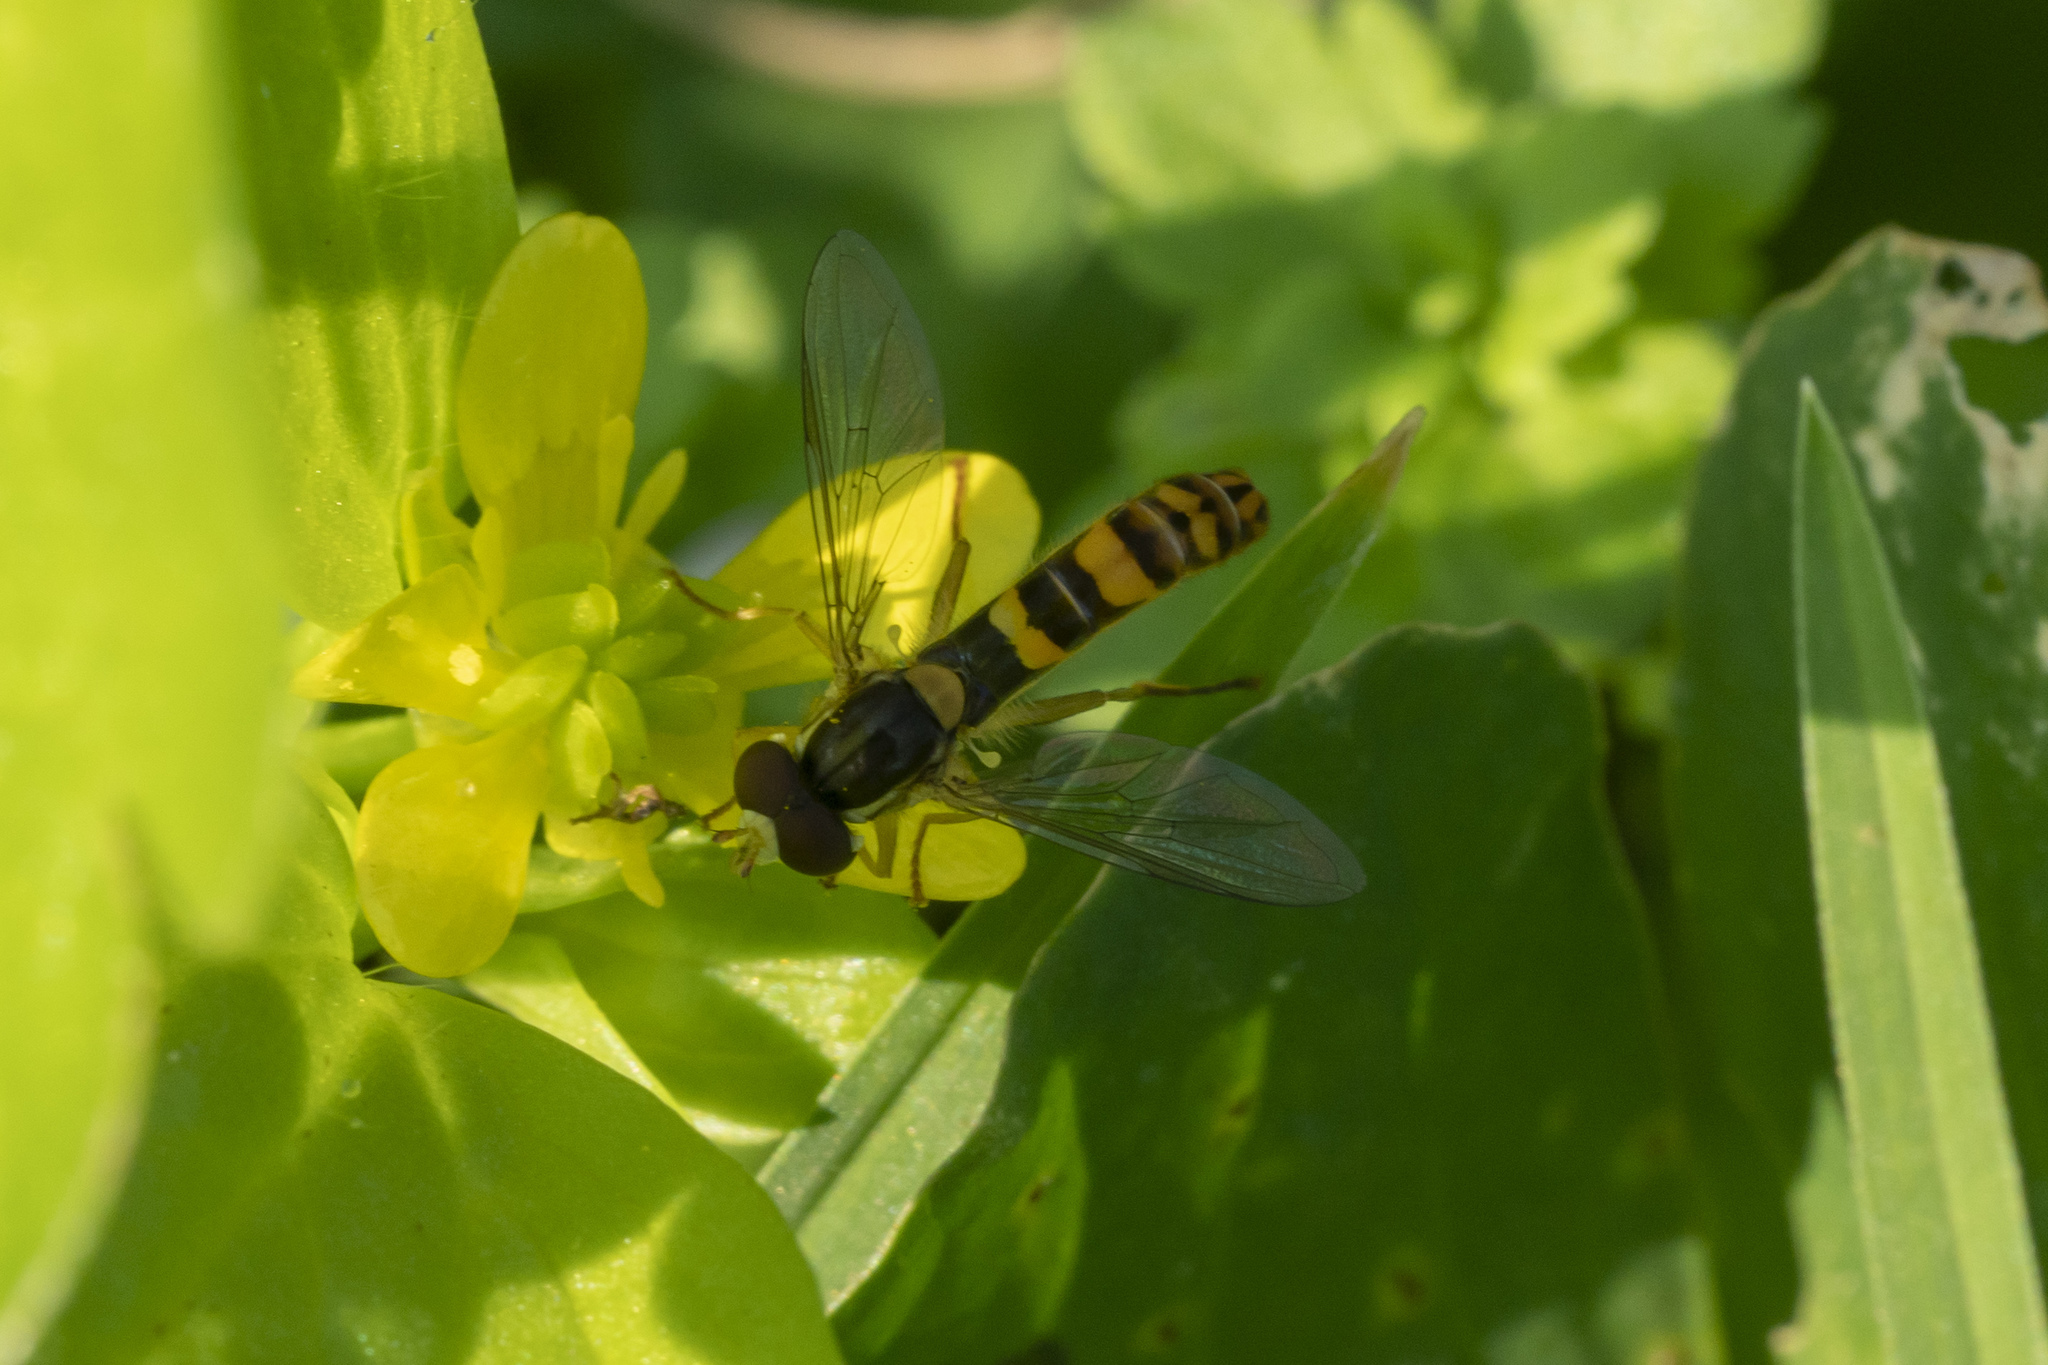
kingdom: Animalia
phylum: Arthropoda
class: Insecta
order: Diptera
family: Syrphidae
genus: Sphaerophoria
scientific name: Sphaerophoria scripta
